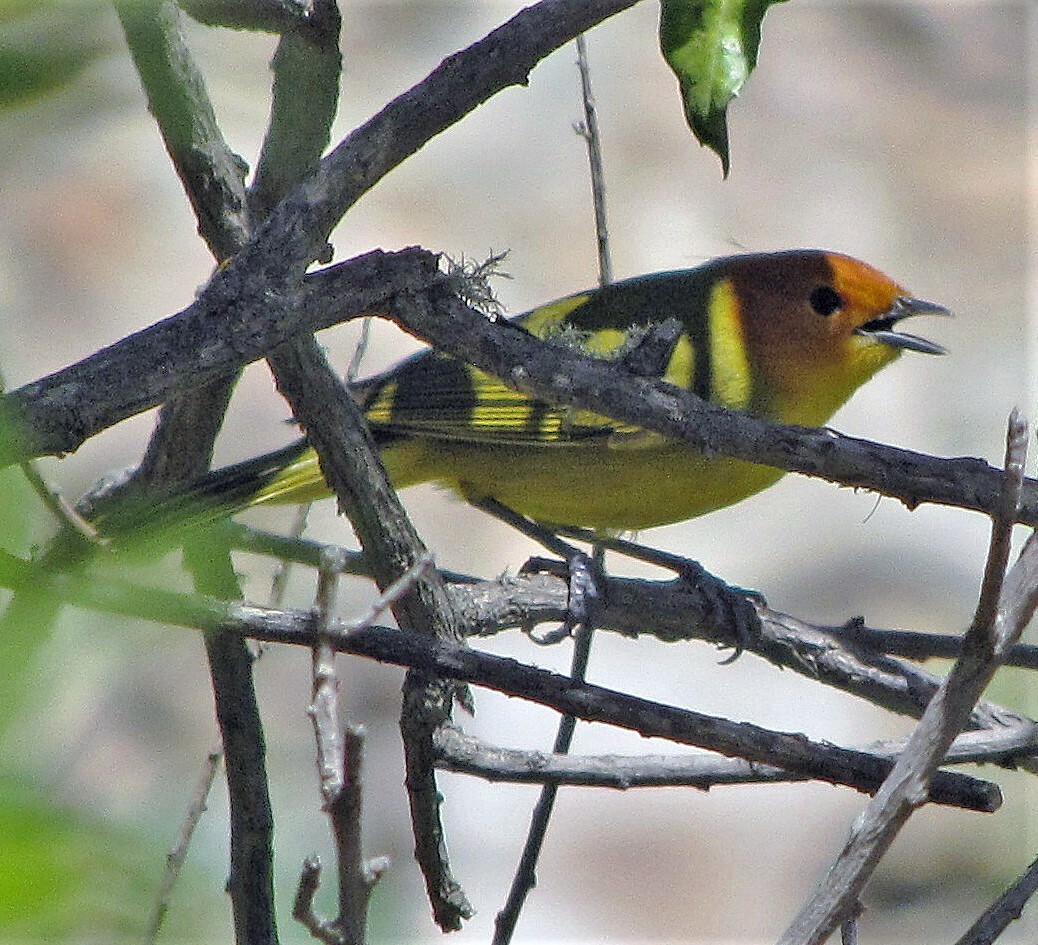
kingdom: Animalia
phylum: Chordata
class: Aves
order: Passeriformes
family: Thraupidae
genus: Thlypopsis
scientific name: Thlypopsis ruficeps
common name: Rust-and-yellow tanager
